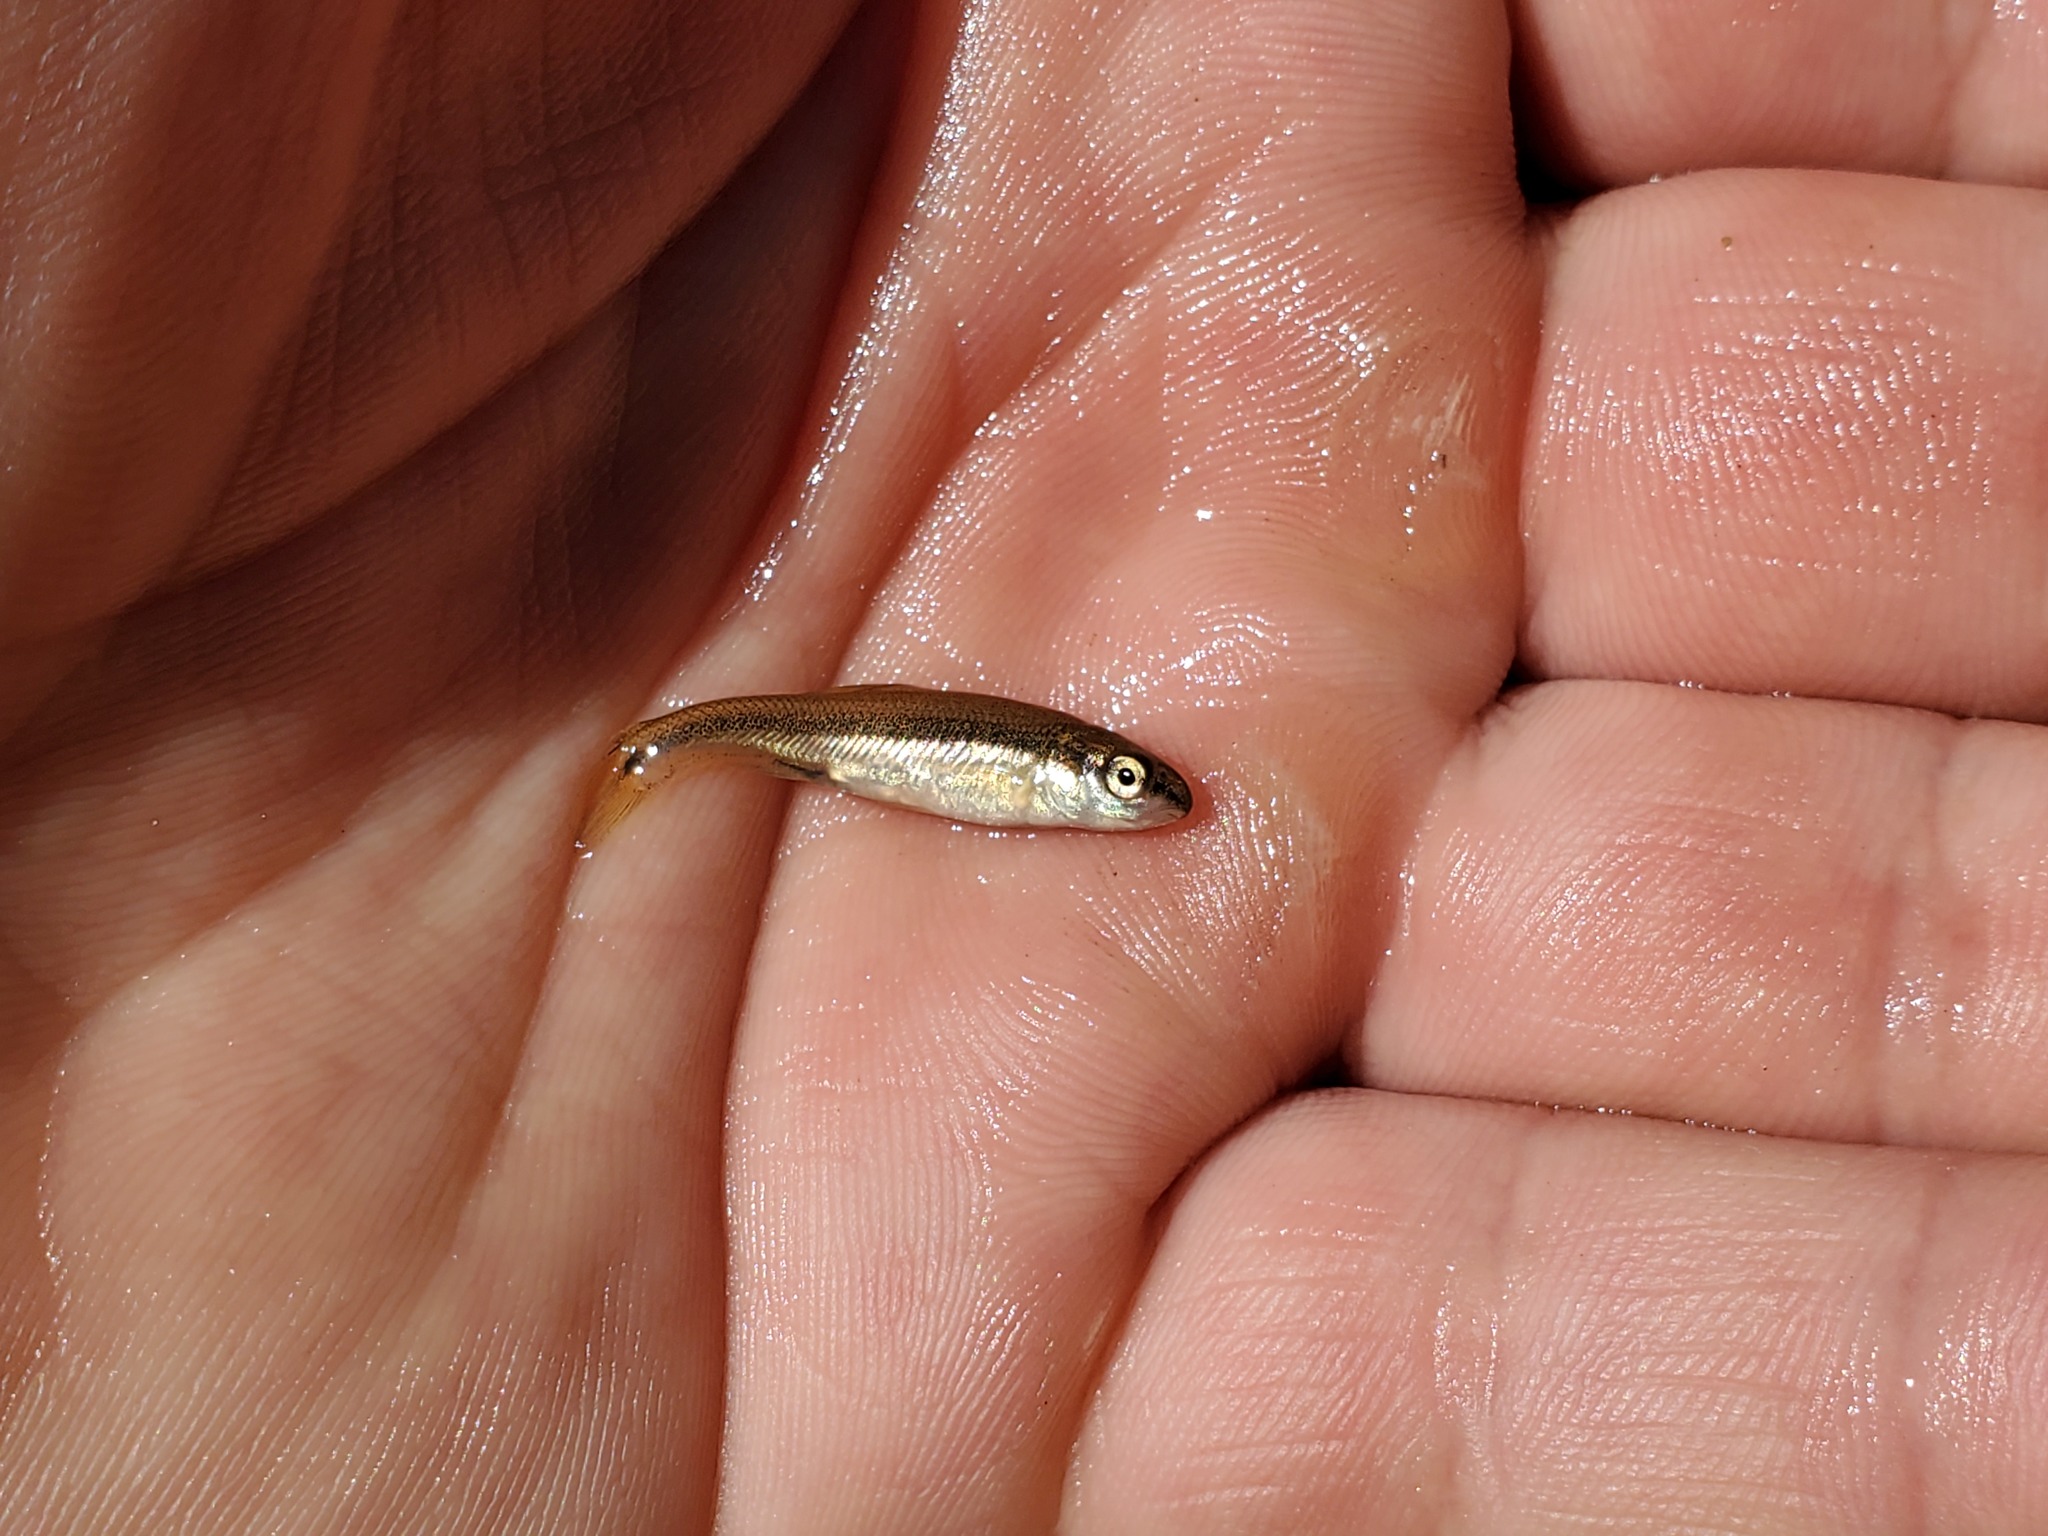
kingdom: Animalia
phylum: Chordata
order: Cypriniformes
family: Cyprinidae
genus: Pimephales
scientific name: Pimephales promelas
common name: Fathead minnow
